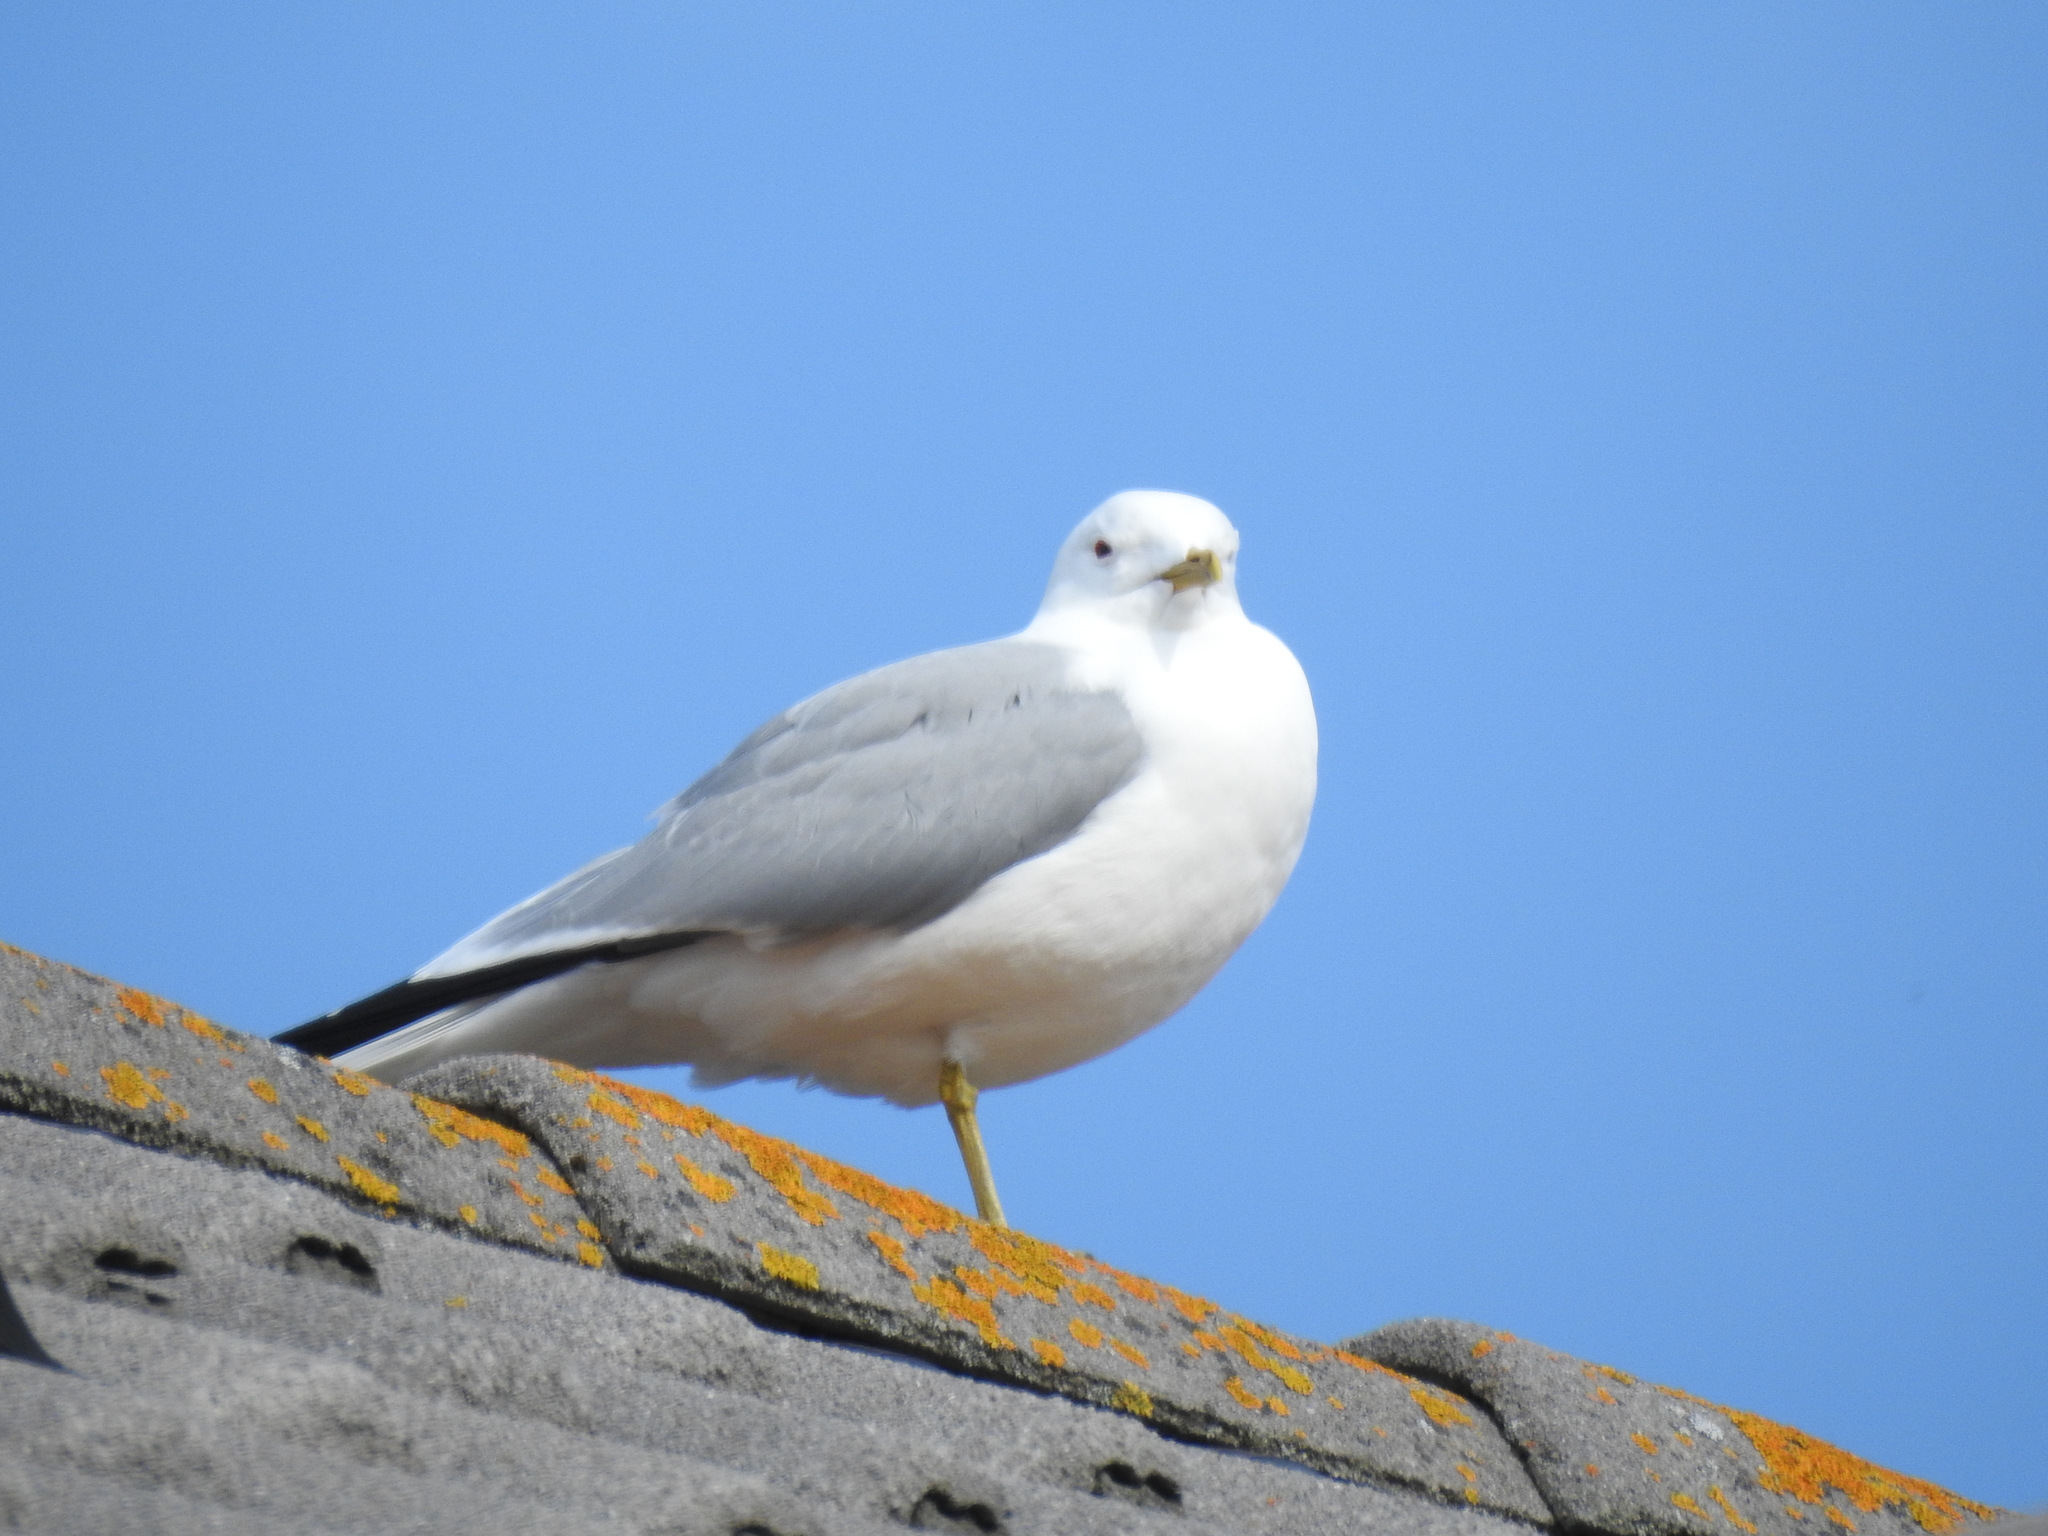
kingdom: Animalia
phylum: Chordata
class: Aves
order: Charadriiformes
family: Laridae
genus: Larus
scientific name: Larus canus
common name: Mew gull
